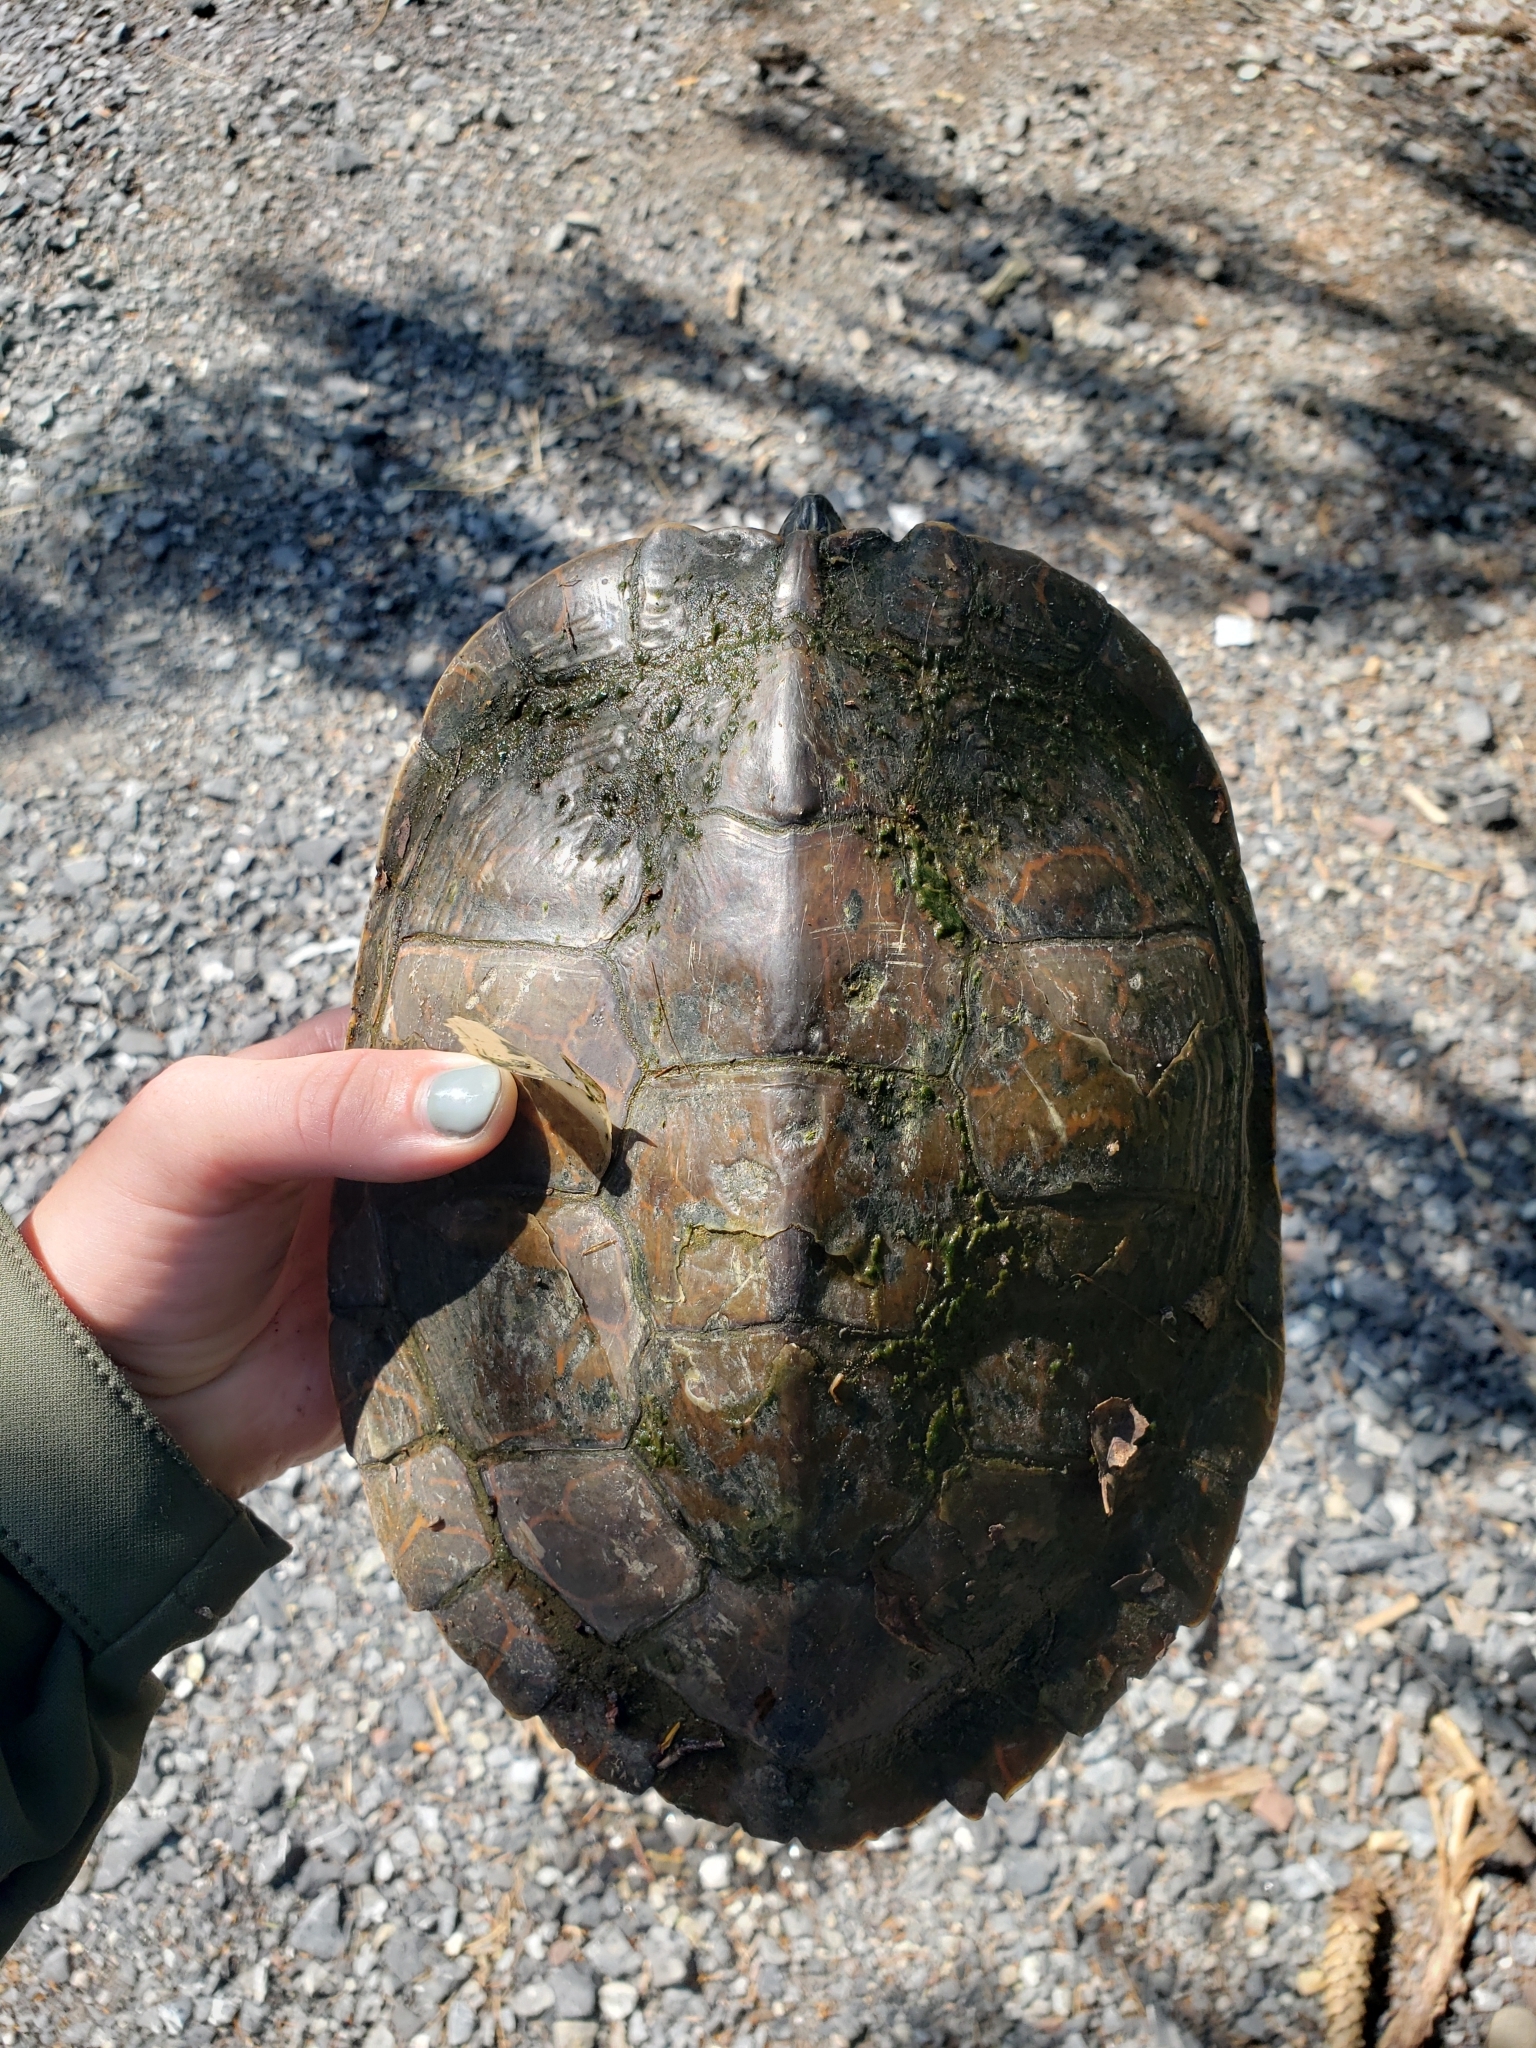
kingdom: Animalia
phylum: Chordata
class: Testudines
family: Emydidae
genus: Graptemys
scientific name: Graptemys geographica
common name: Common map turtle
